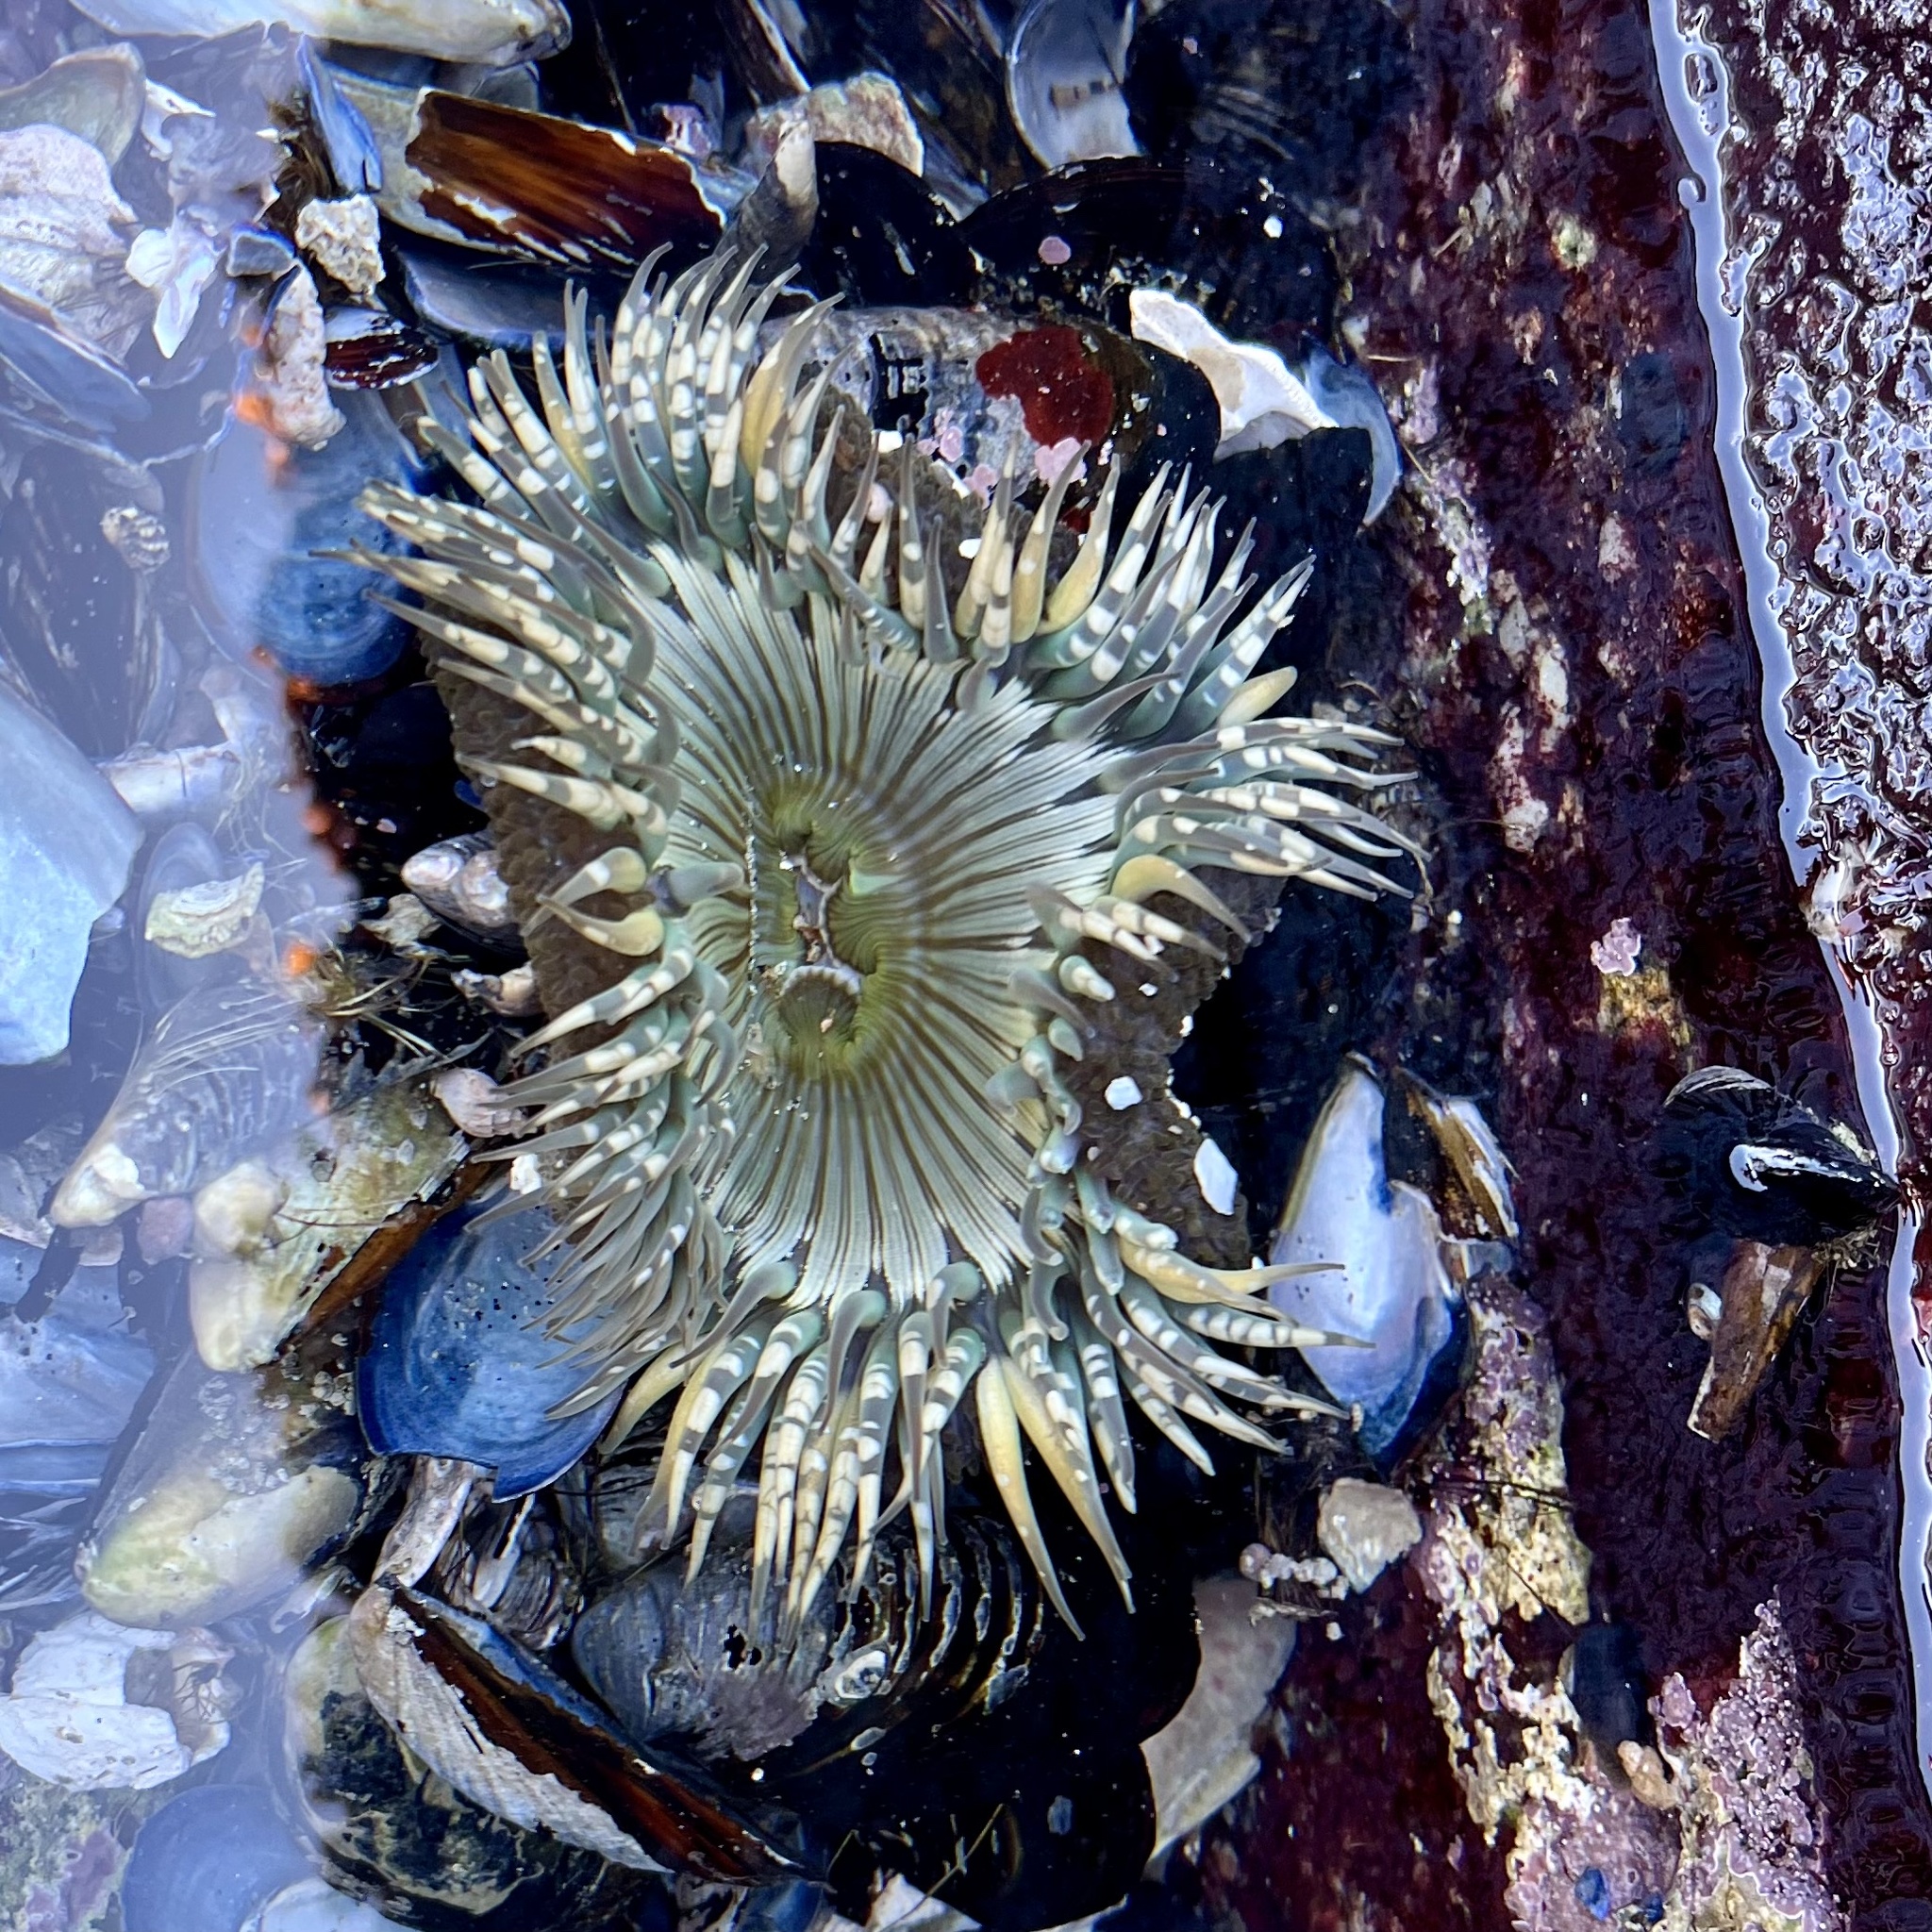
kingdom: Animalia
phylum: Cnidaria
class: Anthozoa
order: Actiniaria
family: Actiniidae
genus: Anthopleura
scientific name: Anthopleura sola
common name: Sun anemone
